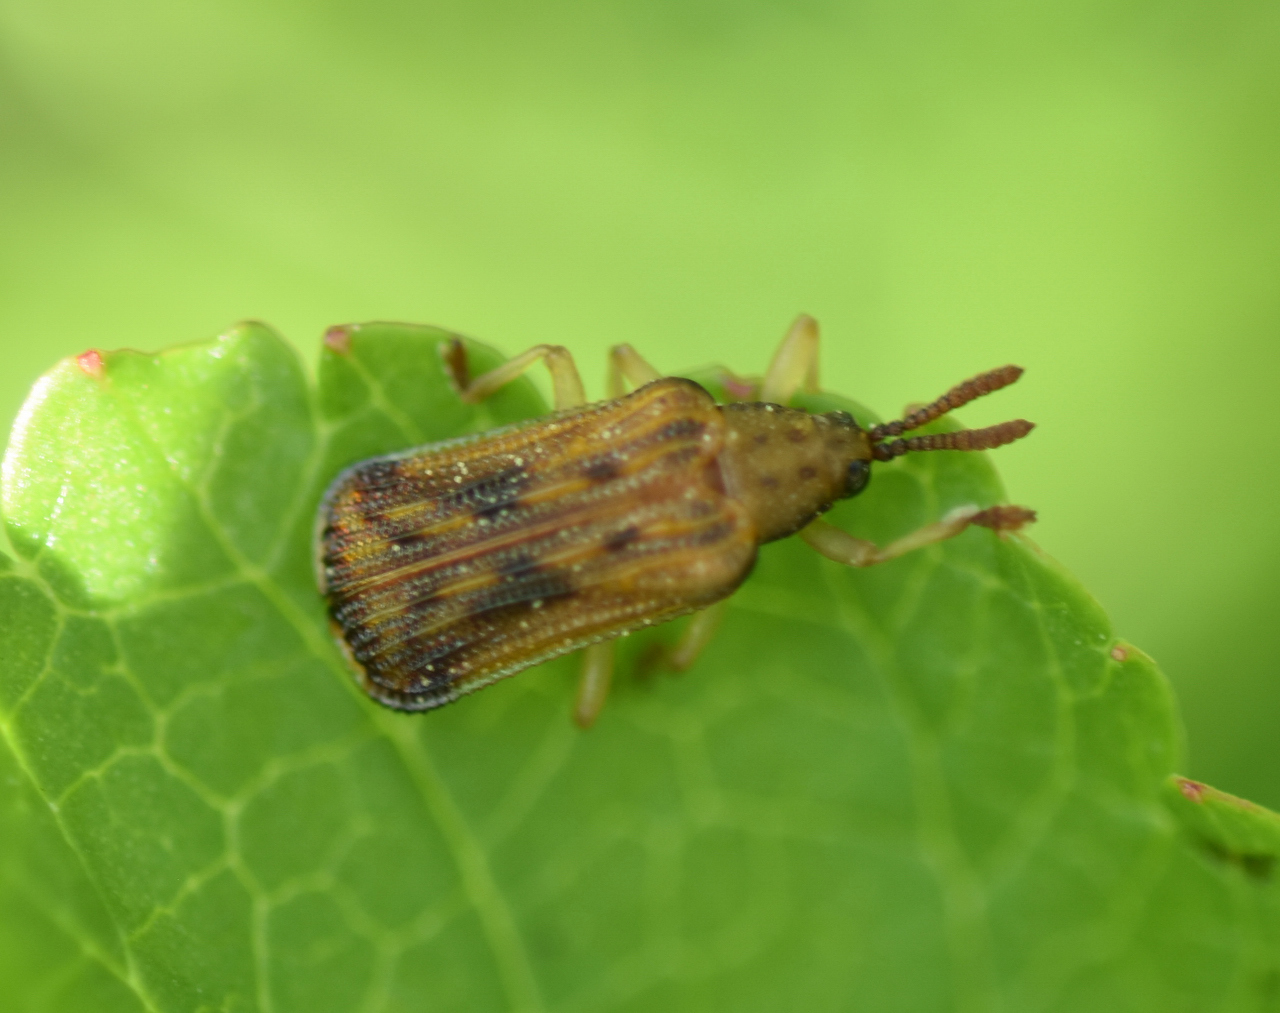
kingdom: Animalia
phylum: Arthropoda
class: Insecta
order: Coleoptera
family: Chrysomelidae
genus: Baliosus
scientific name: Baliosus nervosus
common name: Basswood leaf miner
